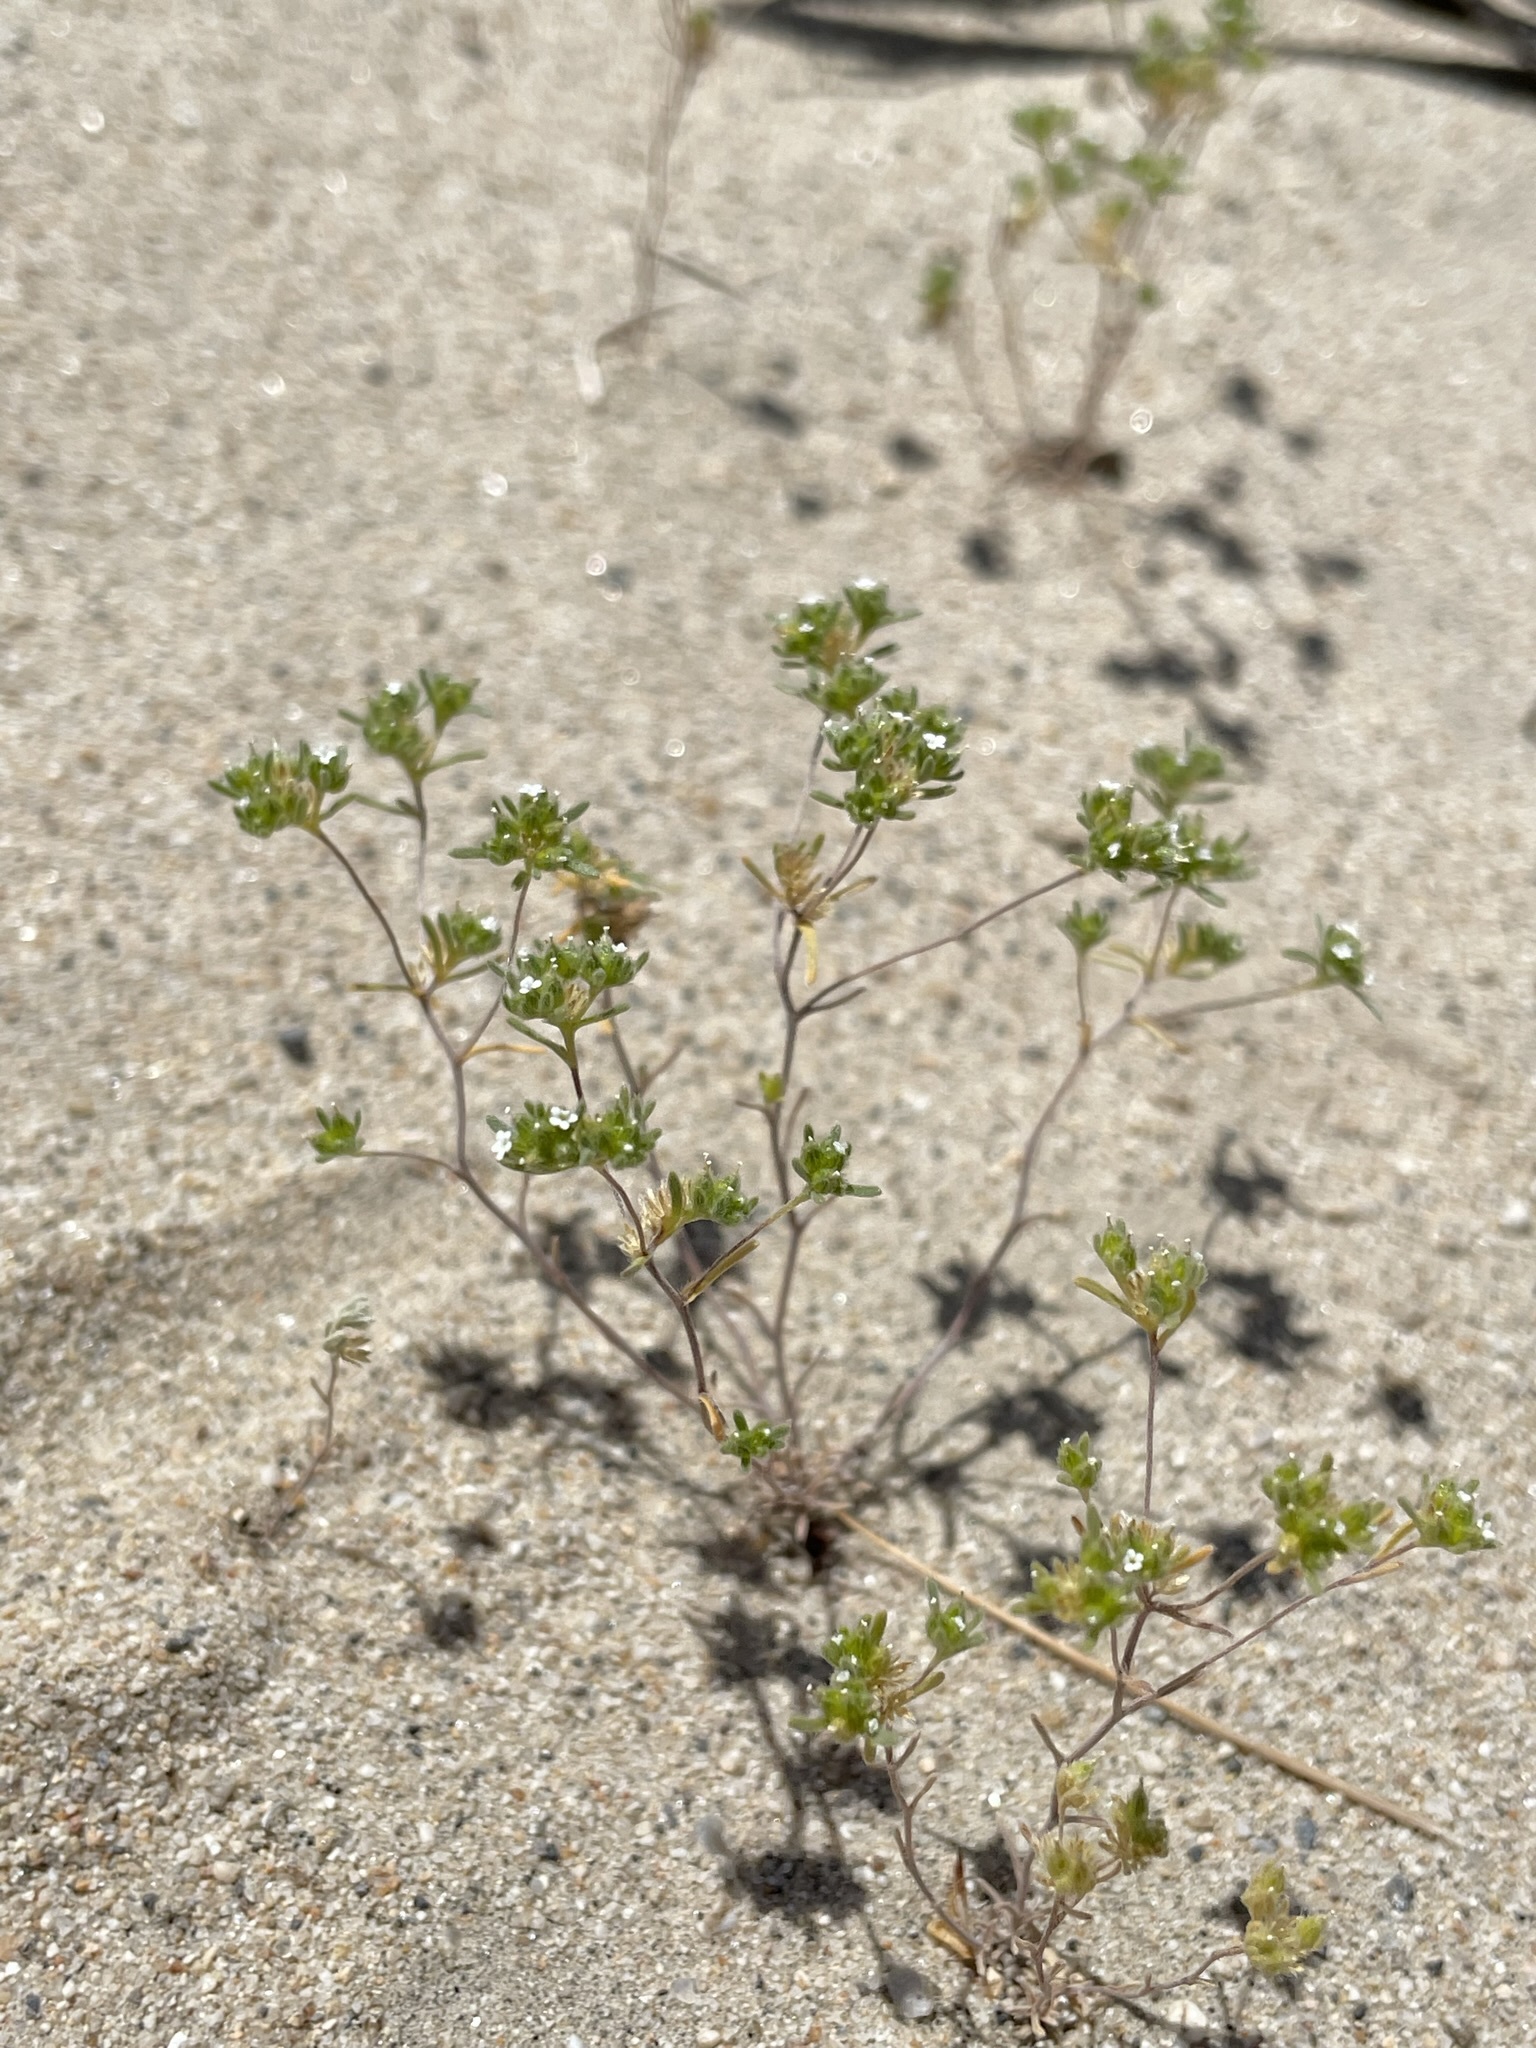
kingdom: Plantae
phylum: Tracheophyta
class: Magnoliopsida
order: Boraginales
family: Boraginaceae
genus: Eremocarya
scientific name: Eremocarya micrantha
